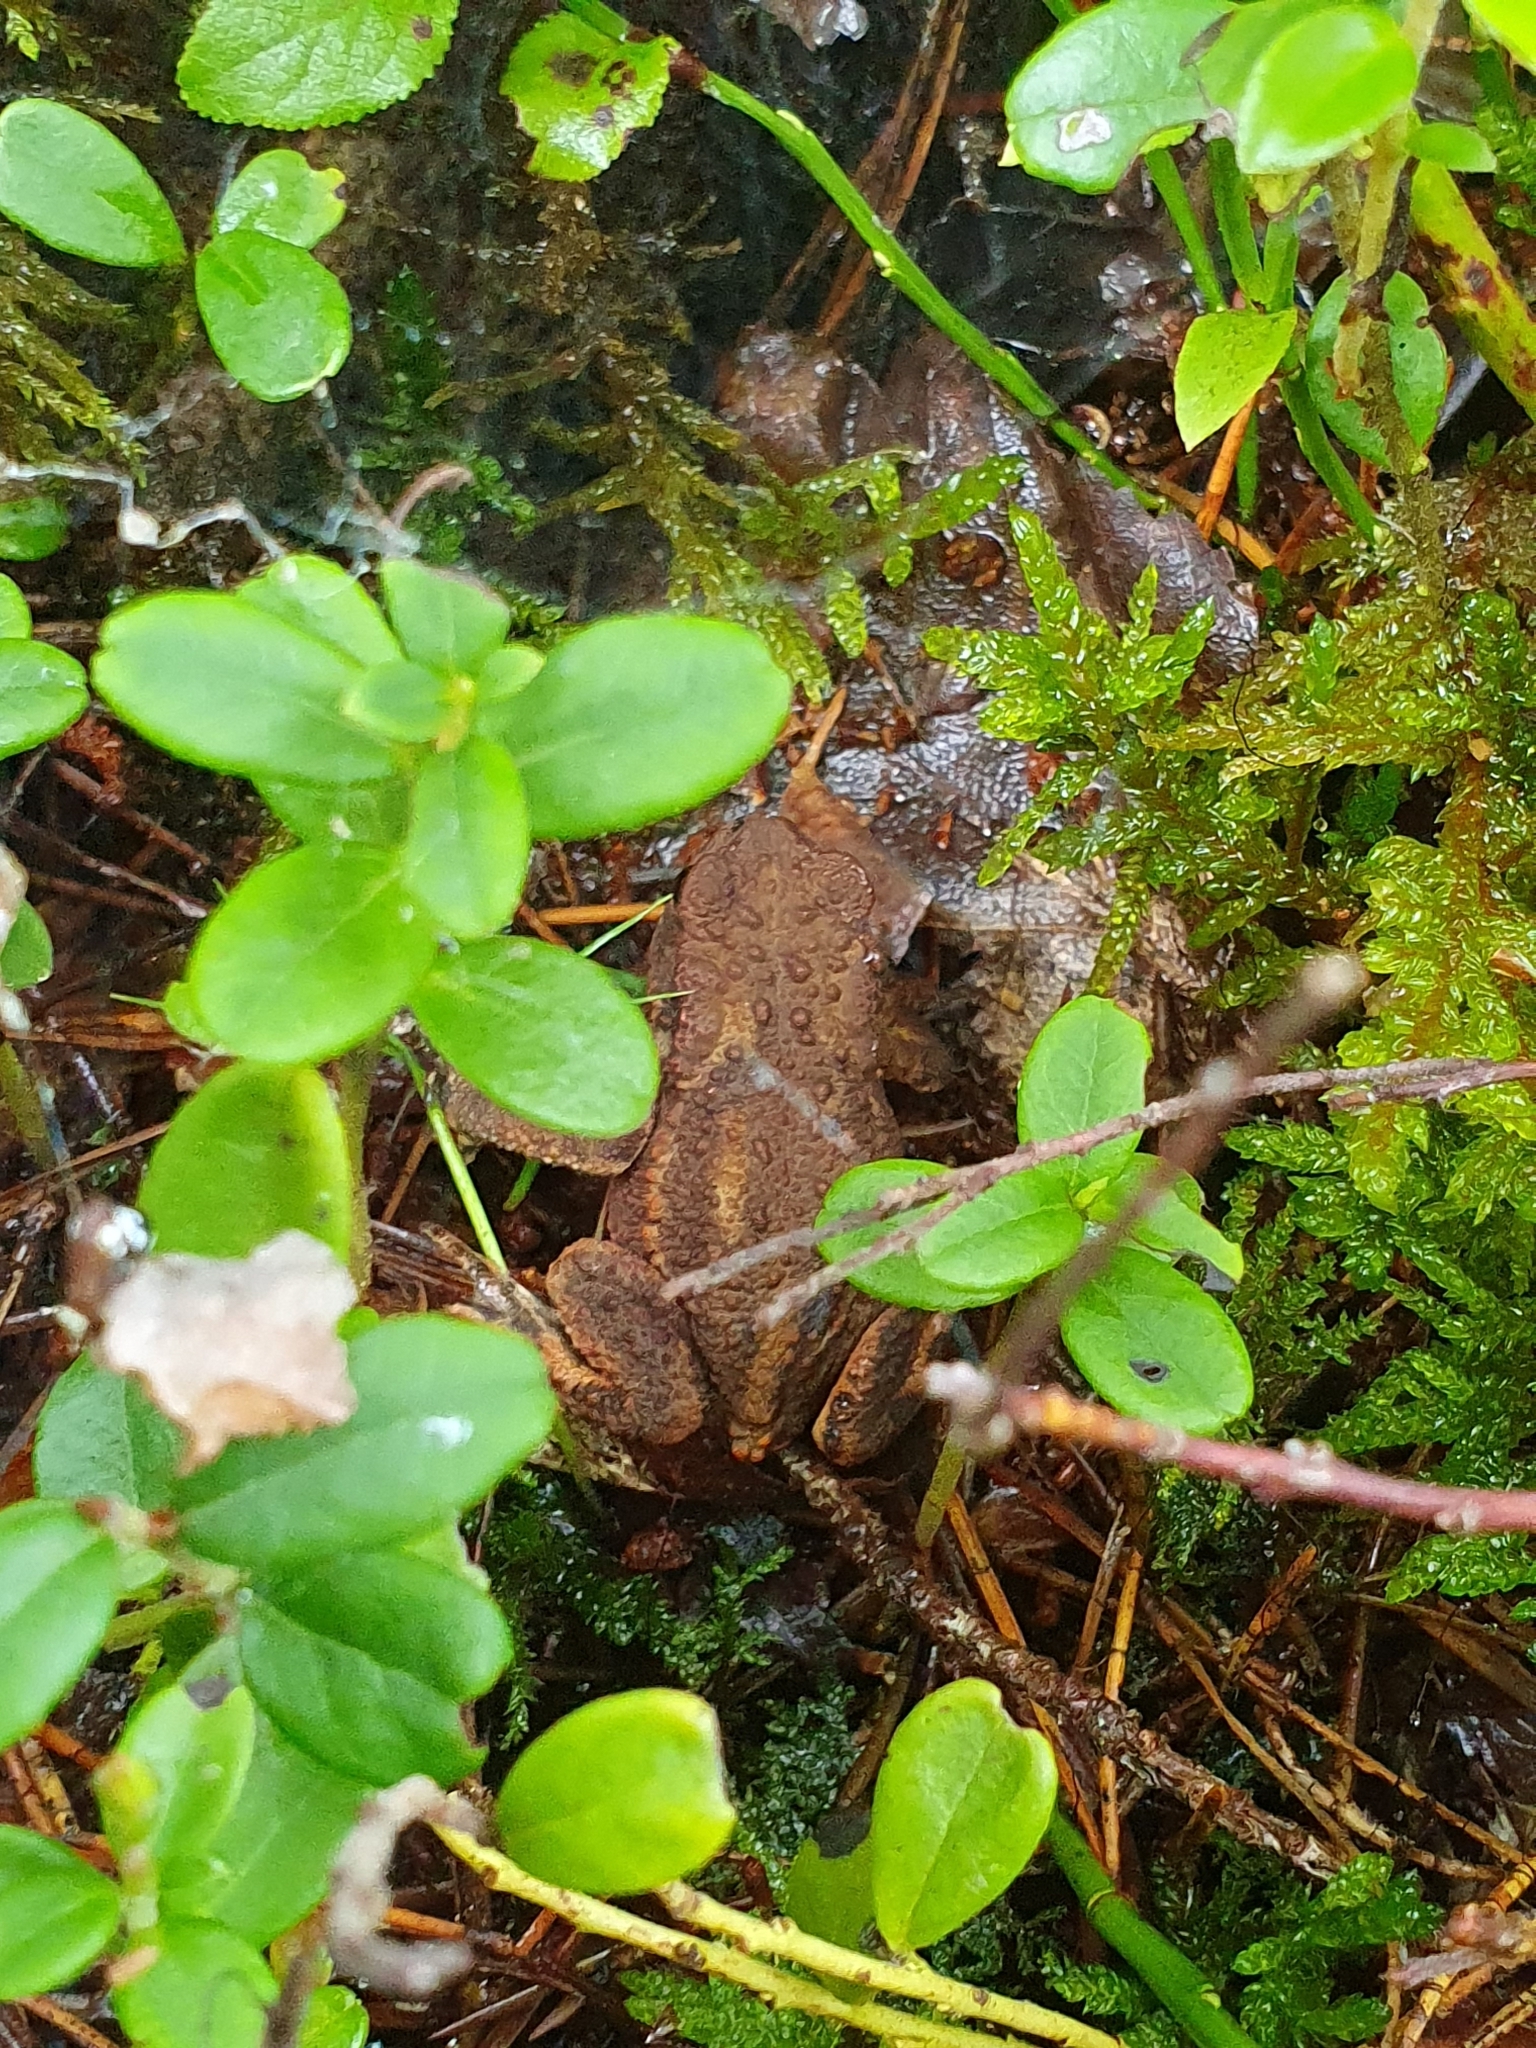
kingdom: Animalia
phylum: Chordata
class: Amphibia
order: Anura
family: Bufonidae
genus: Bufo
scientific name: Bufo bufo
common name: Common toad
